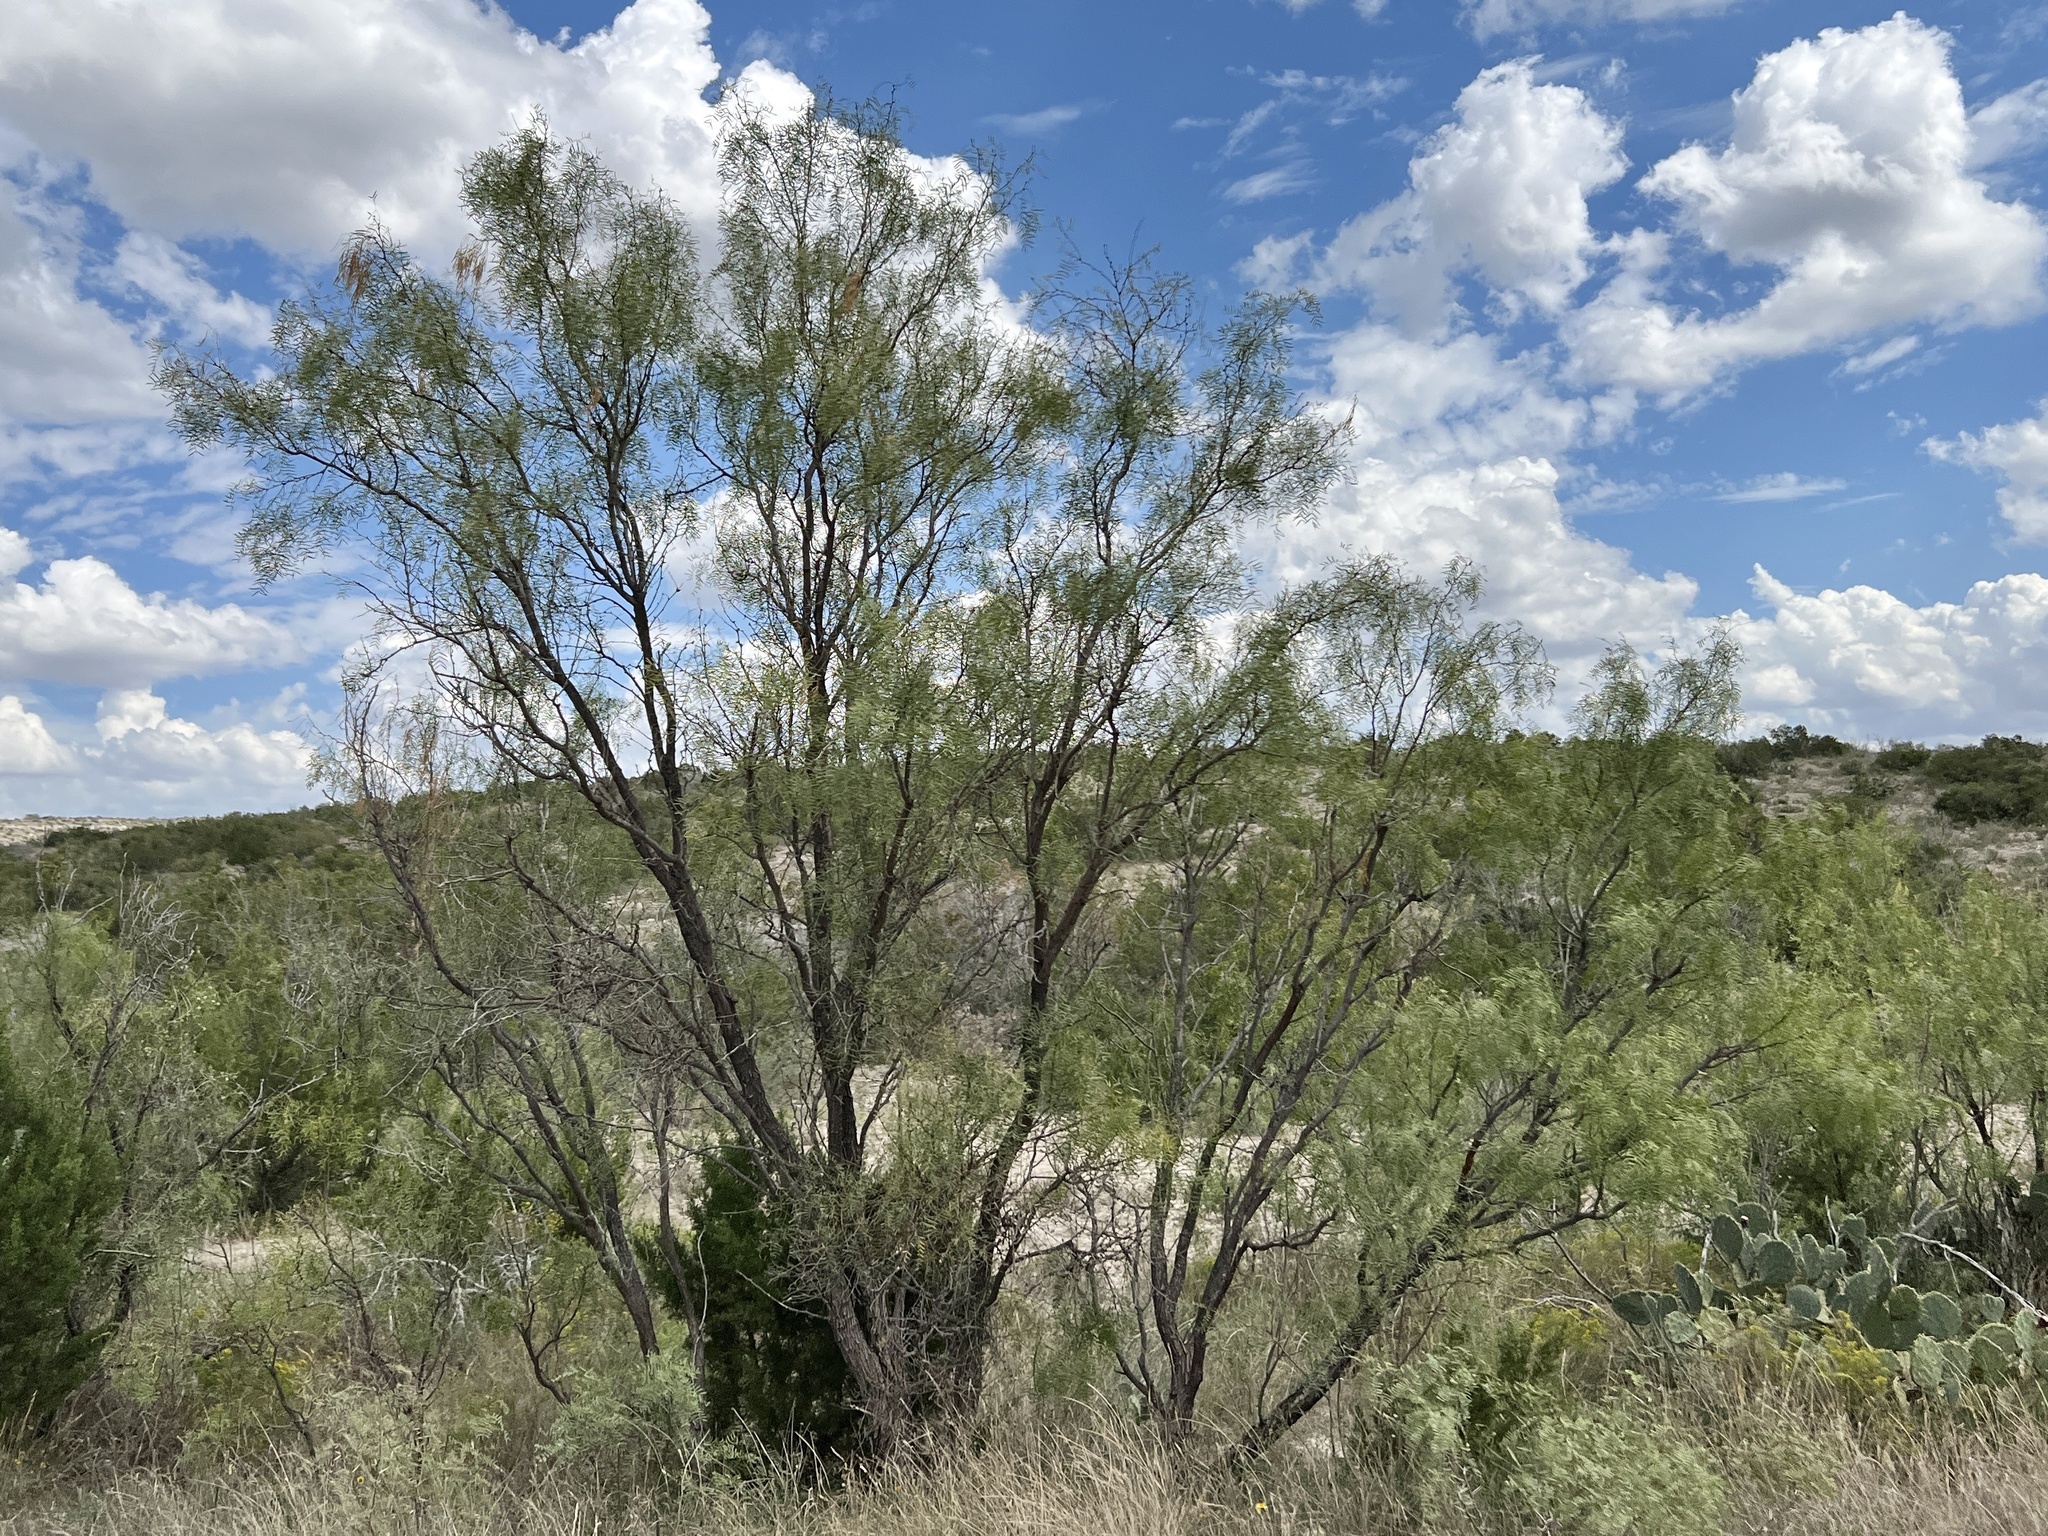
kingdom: Plantae
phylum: Tracheophyta
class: Magnoliopsida
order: Fabales
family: Fabaceae
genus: Prosopis
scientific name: Prosopis glandulosa
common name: Honey mesquite
